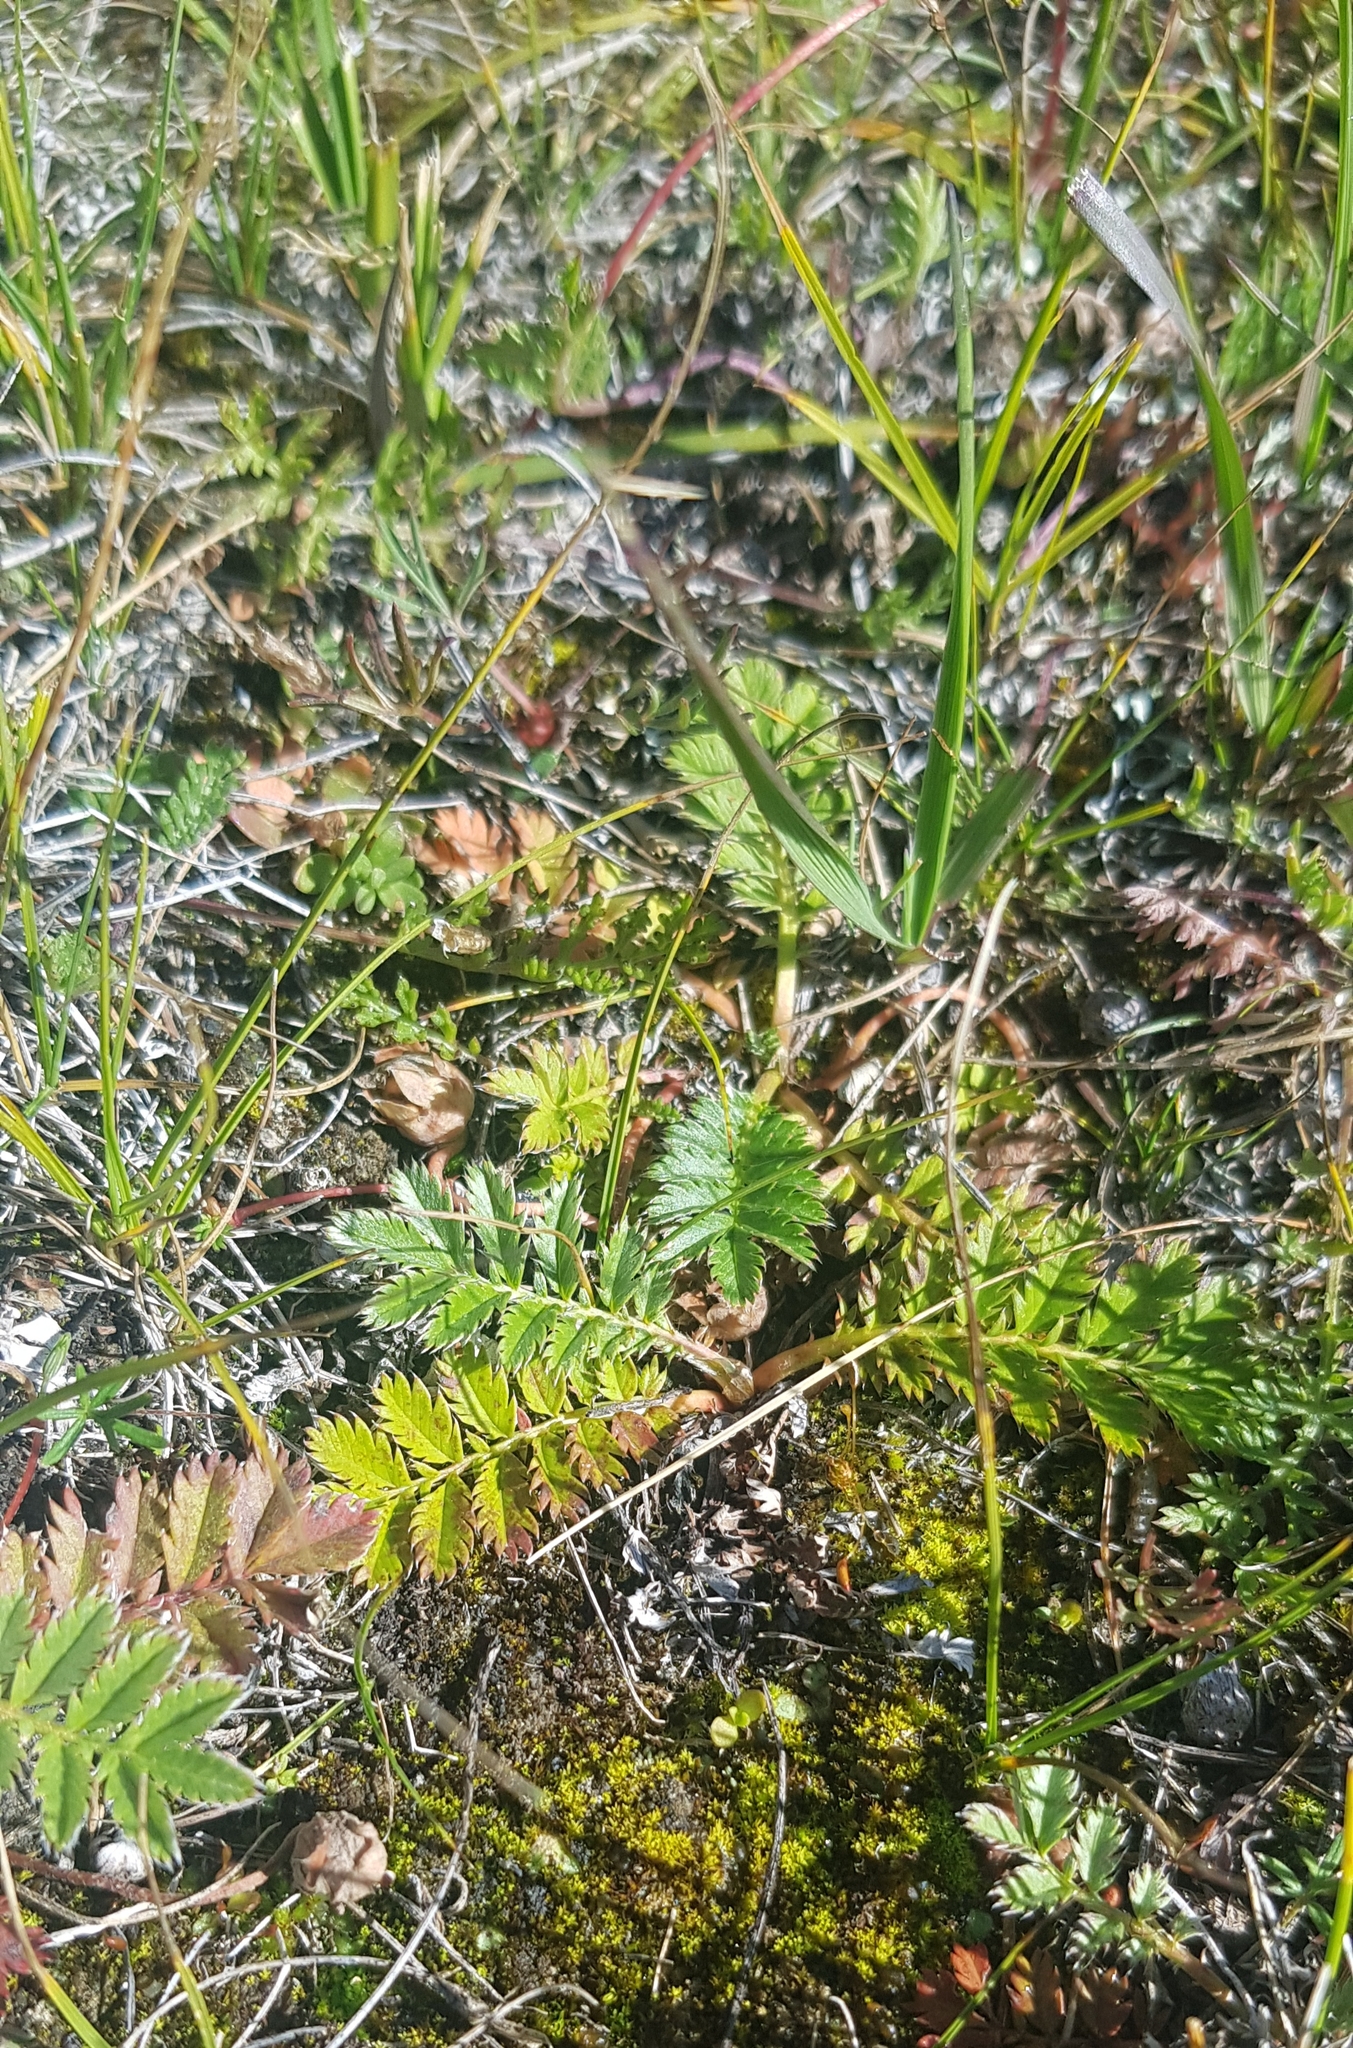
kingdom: Plantae
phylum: Tracheophyta
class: Magnoliopsida
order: Rosales
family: Rosaceae
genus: Argentina
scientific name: Argentina anserina
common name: Common silverweed
